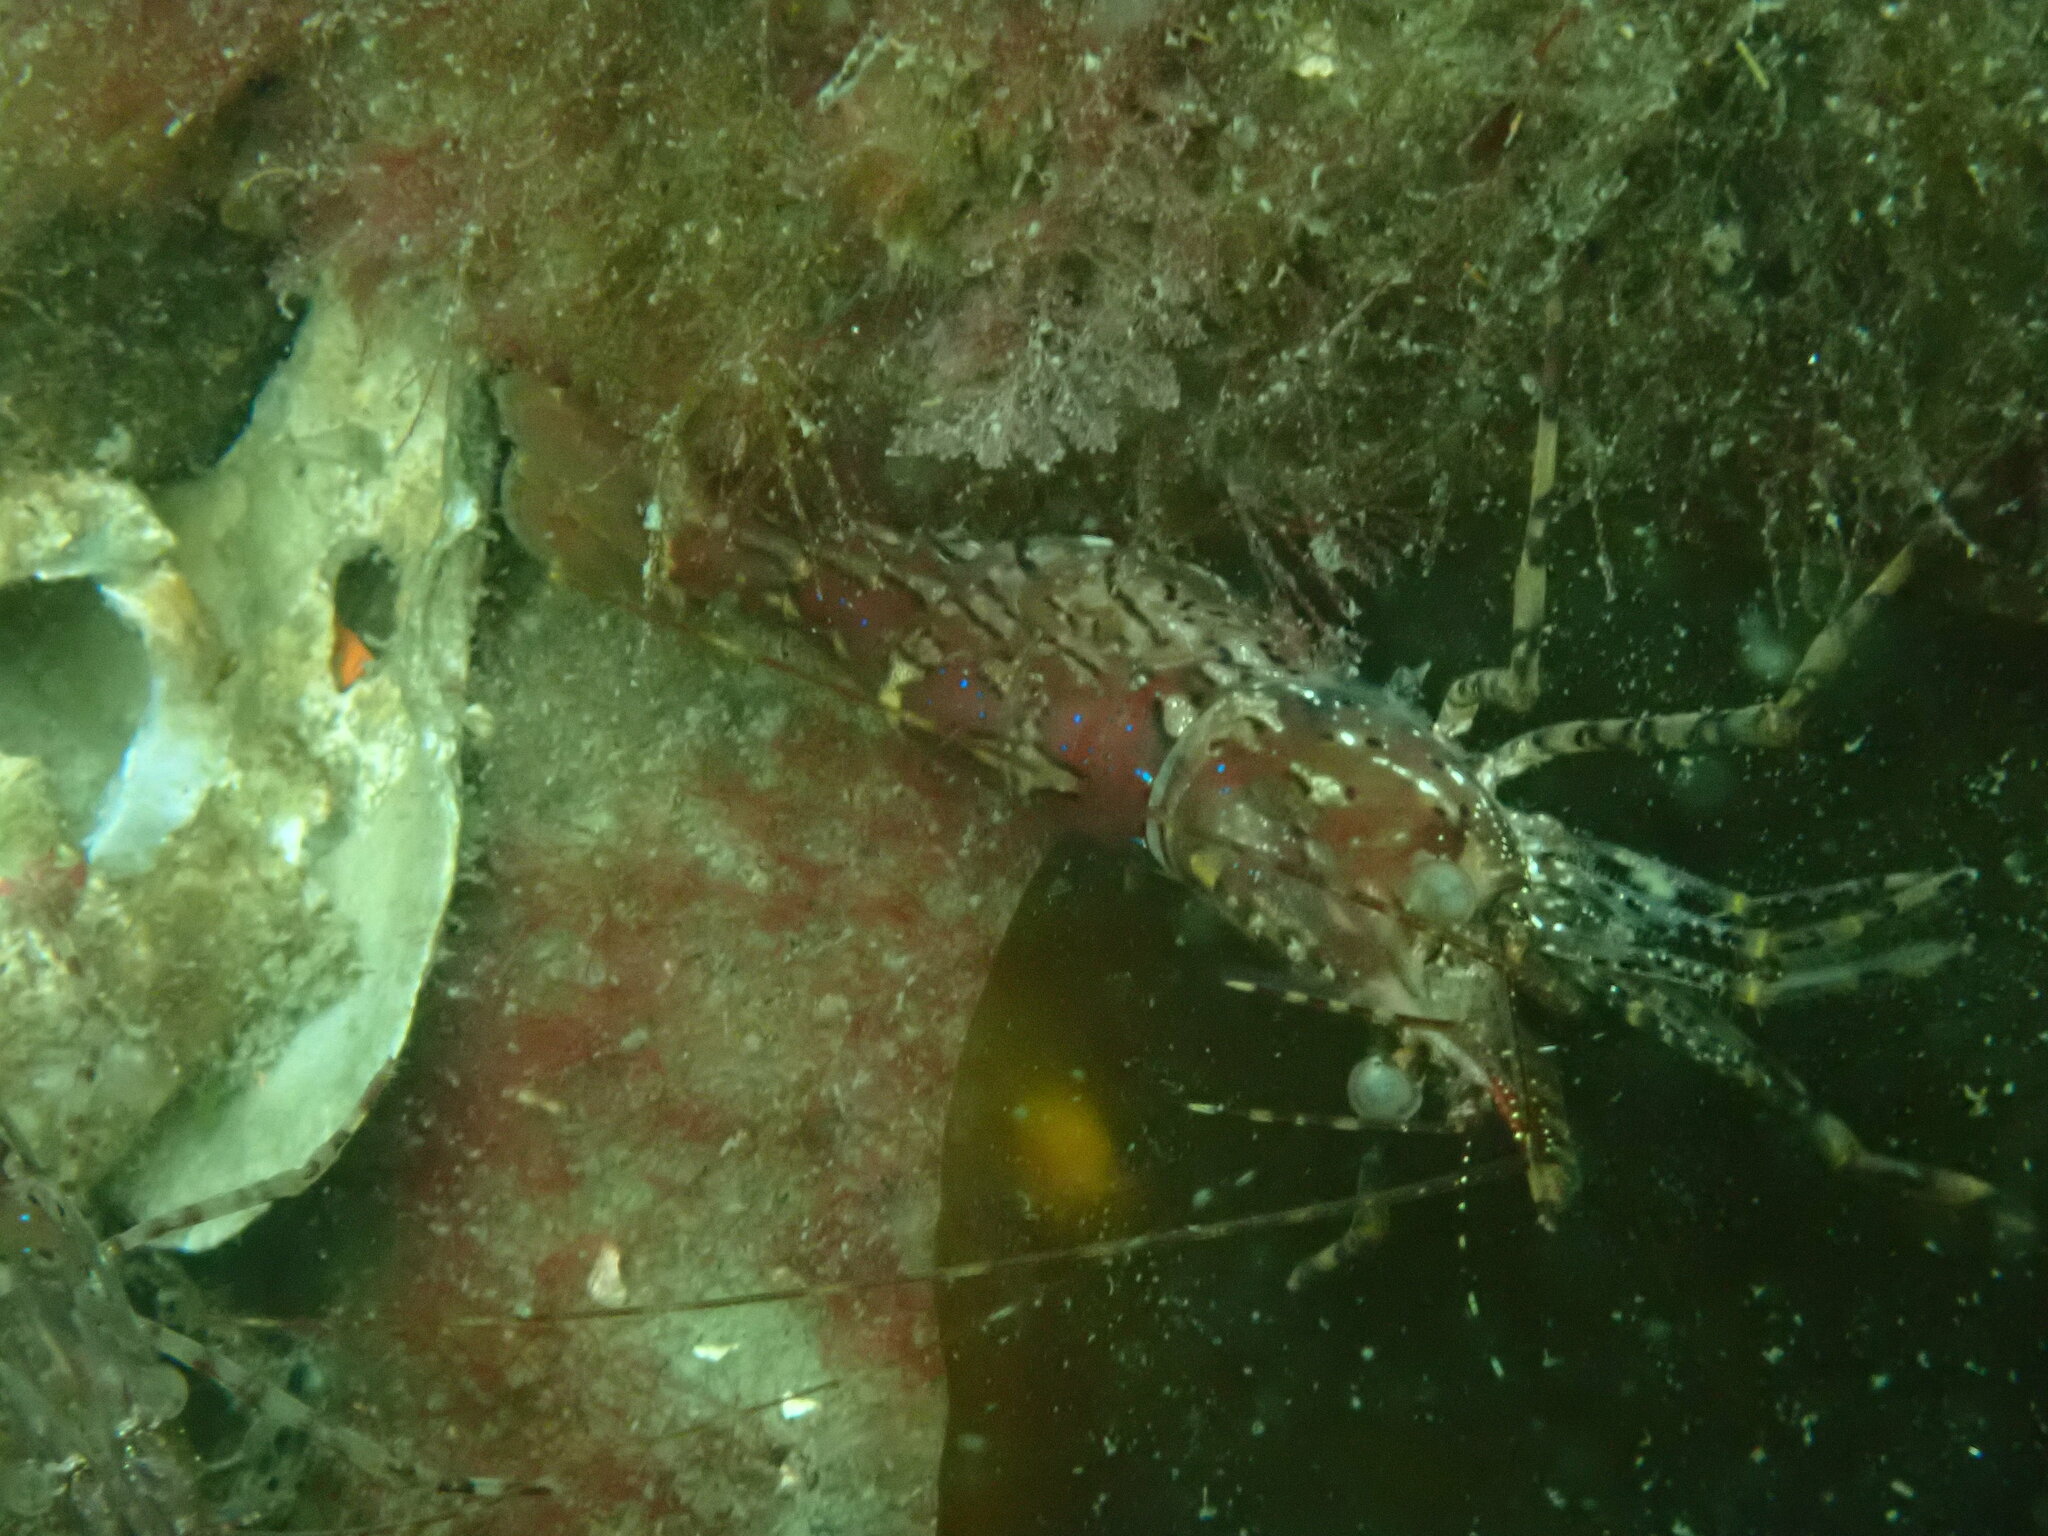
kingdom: Animalia
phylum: Arthropoda
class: Malacostraca
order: Decapoda
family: Pandalidae
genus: Pandalus
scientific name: Pandalus danae
